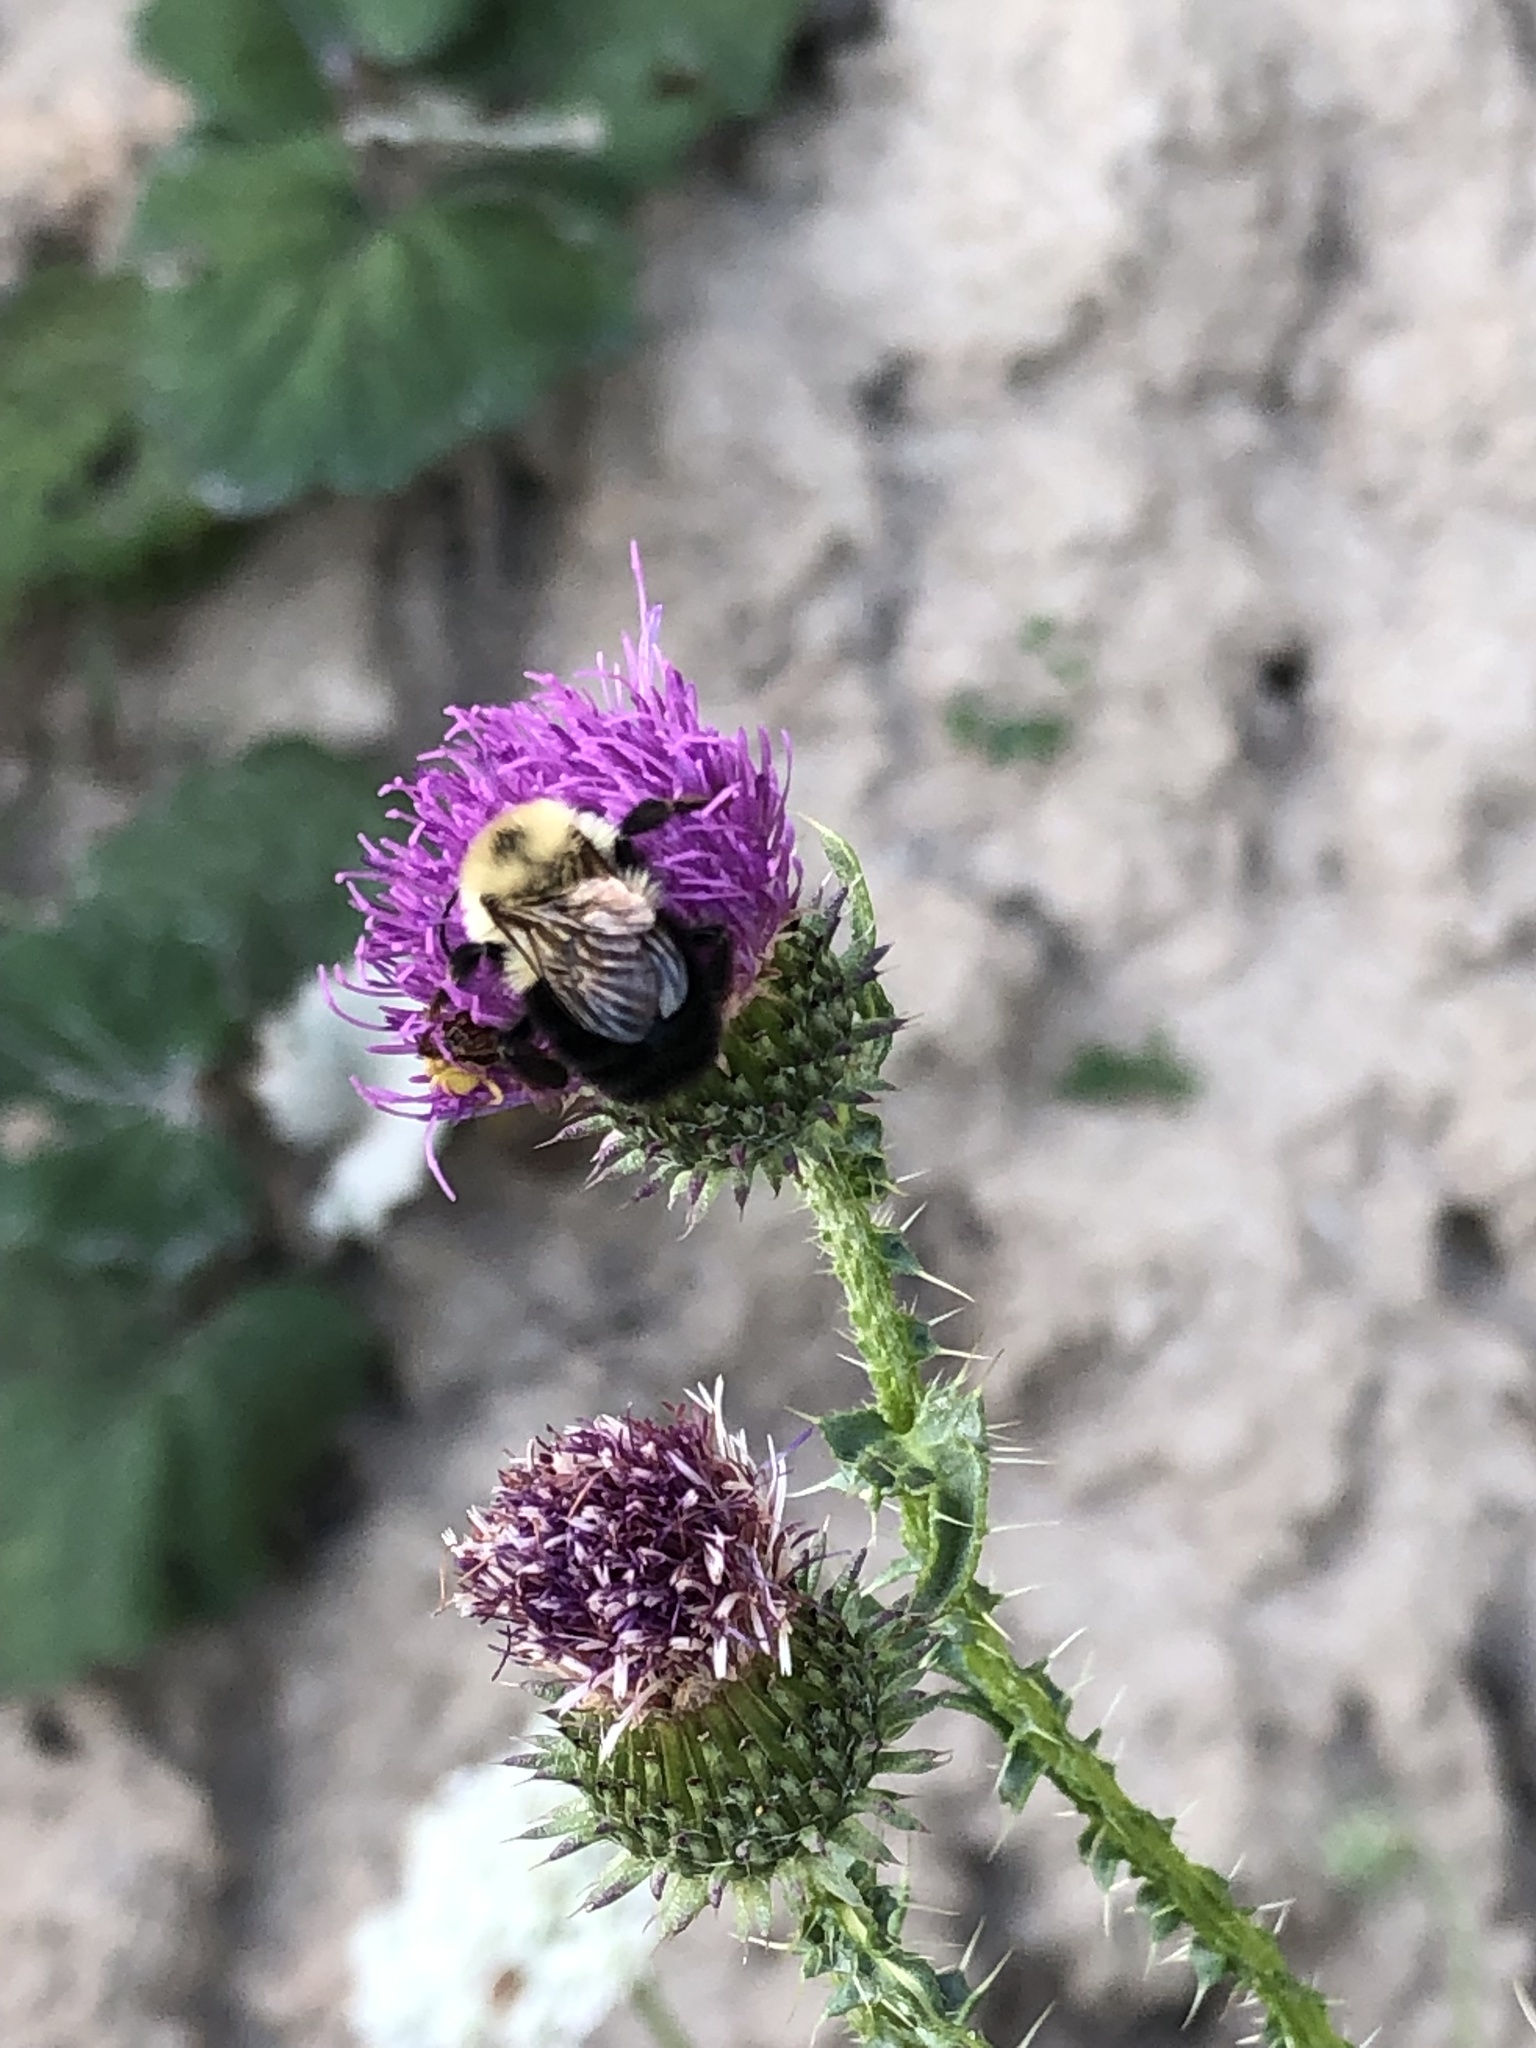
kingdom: Animalia
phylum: Arthropoda
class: Insecta
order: Hymenoptera
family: Apidae
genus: Bombus
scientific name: Bombus bimaculatus
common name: Two-spotted bumble bee
